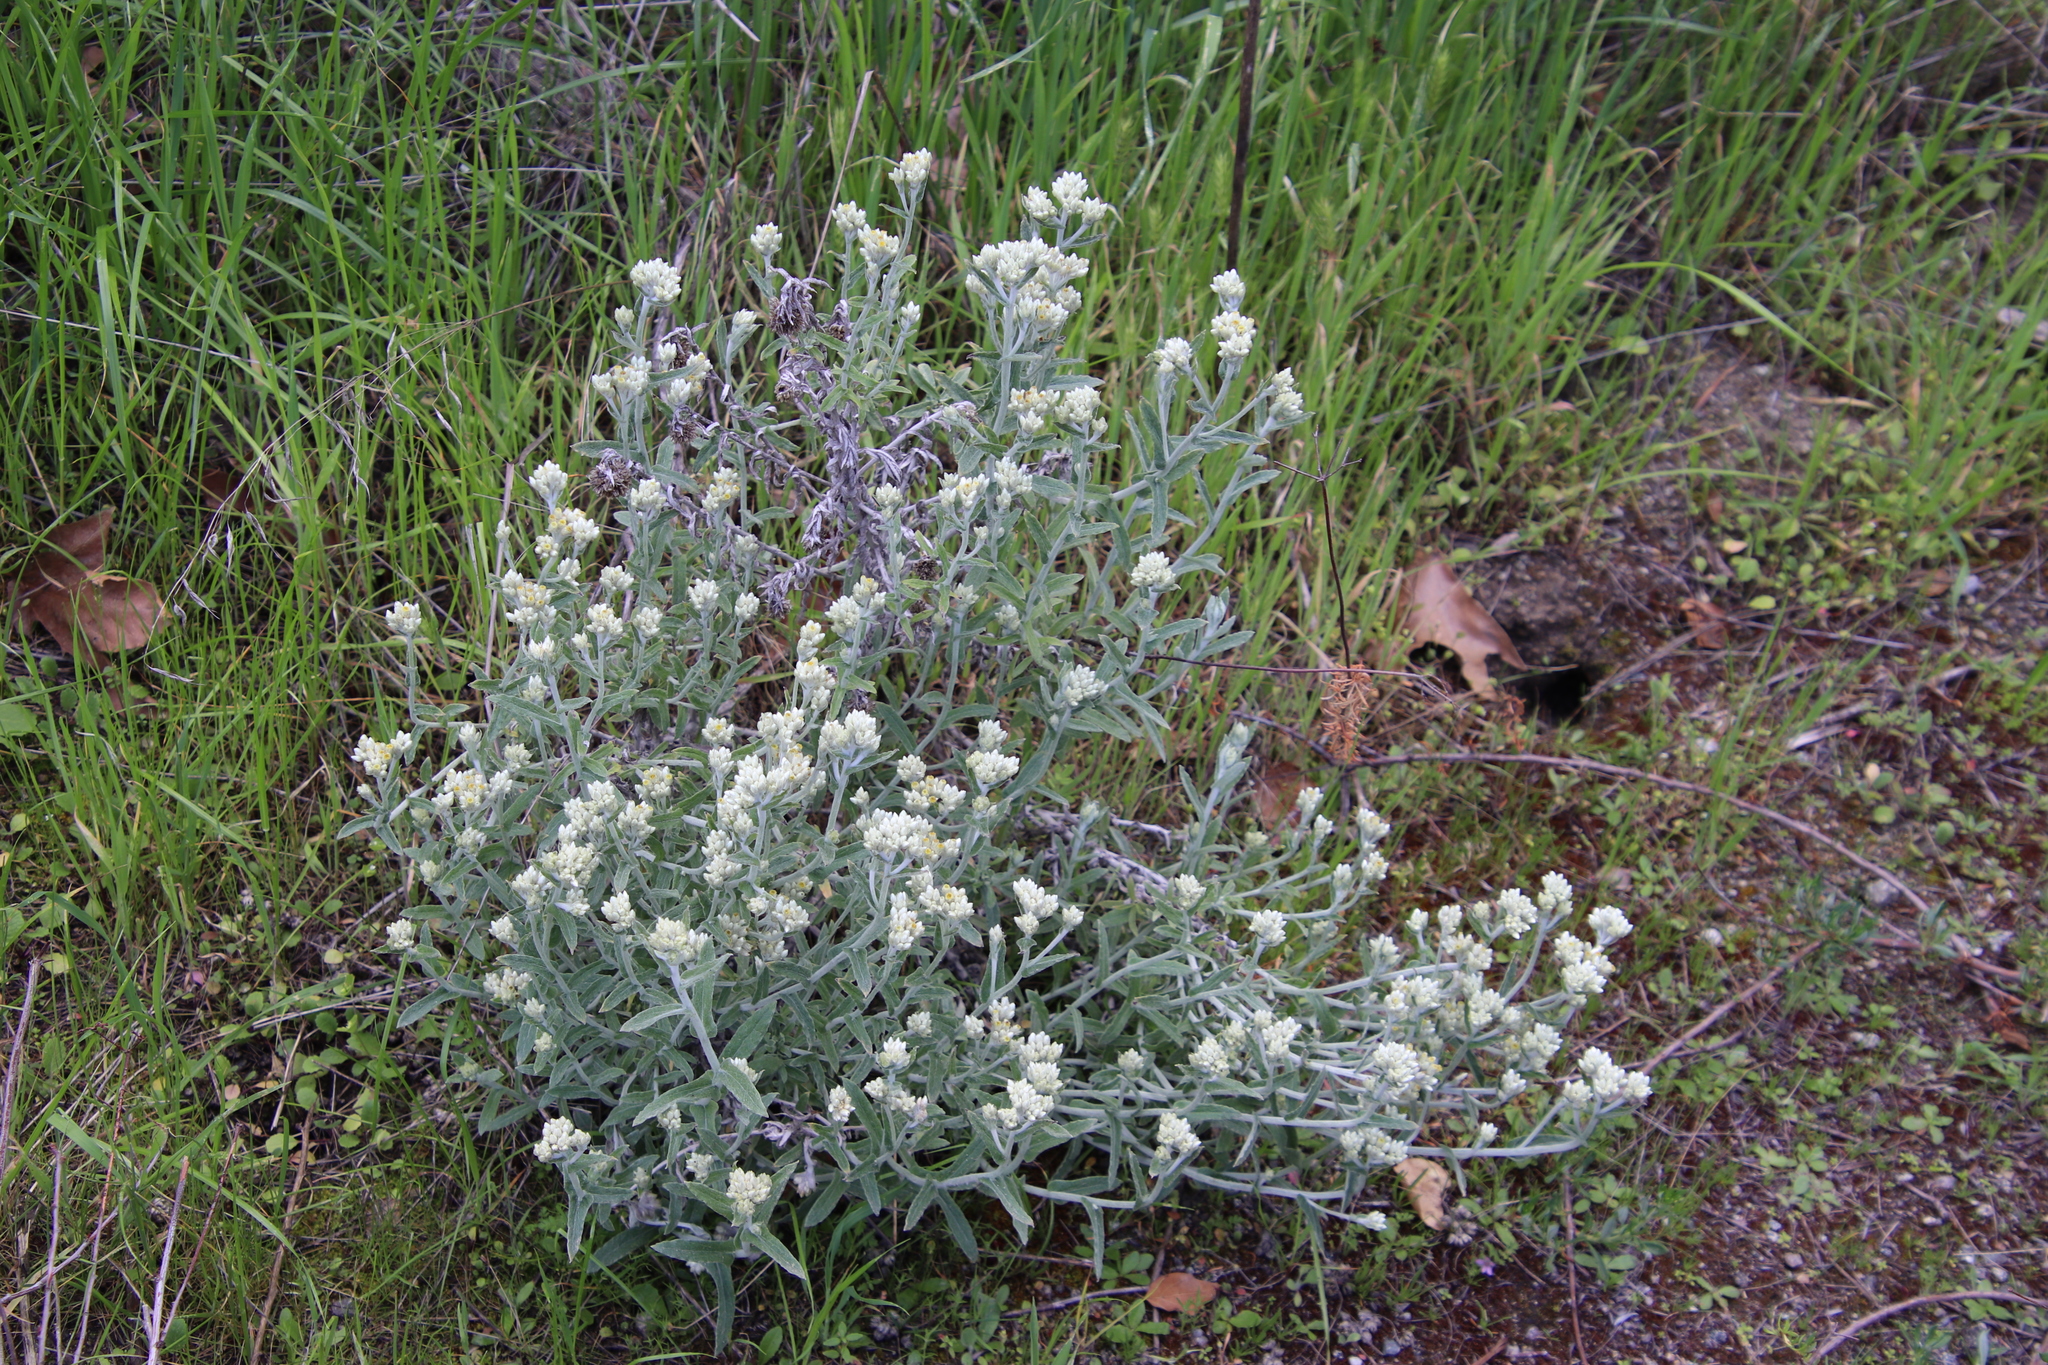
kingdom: Plantae
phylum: Tracheophyta
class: Magnoliopsida
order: Asterales
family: Asteraceae
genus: Pseudognaphalium
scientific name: Pseudognaphalium biolettii
